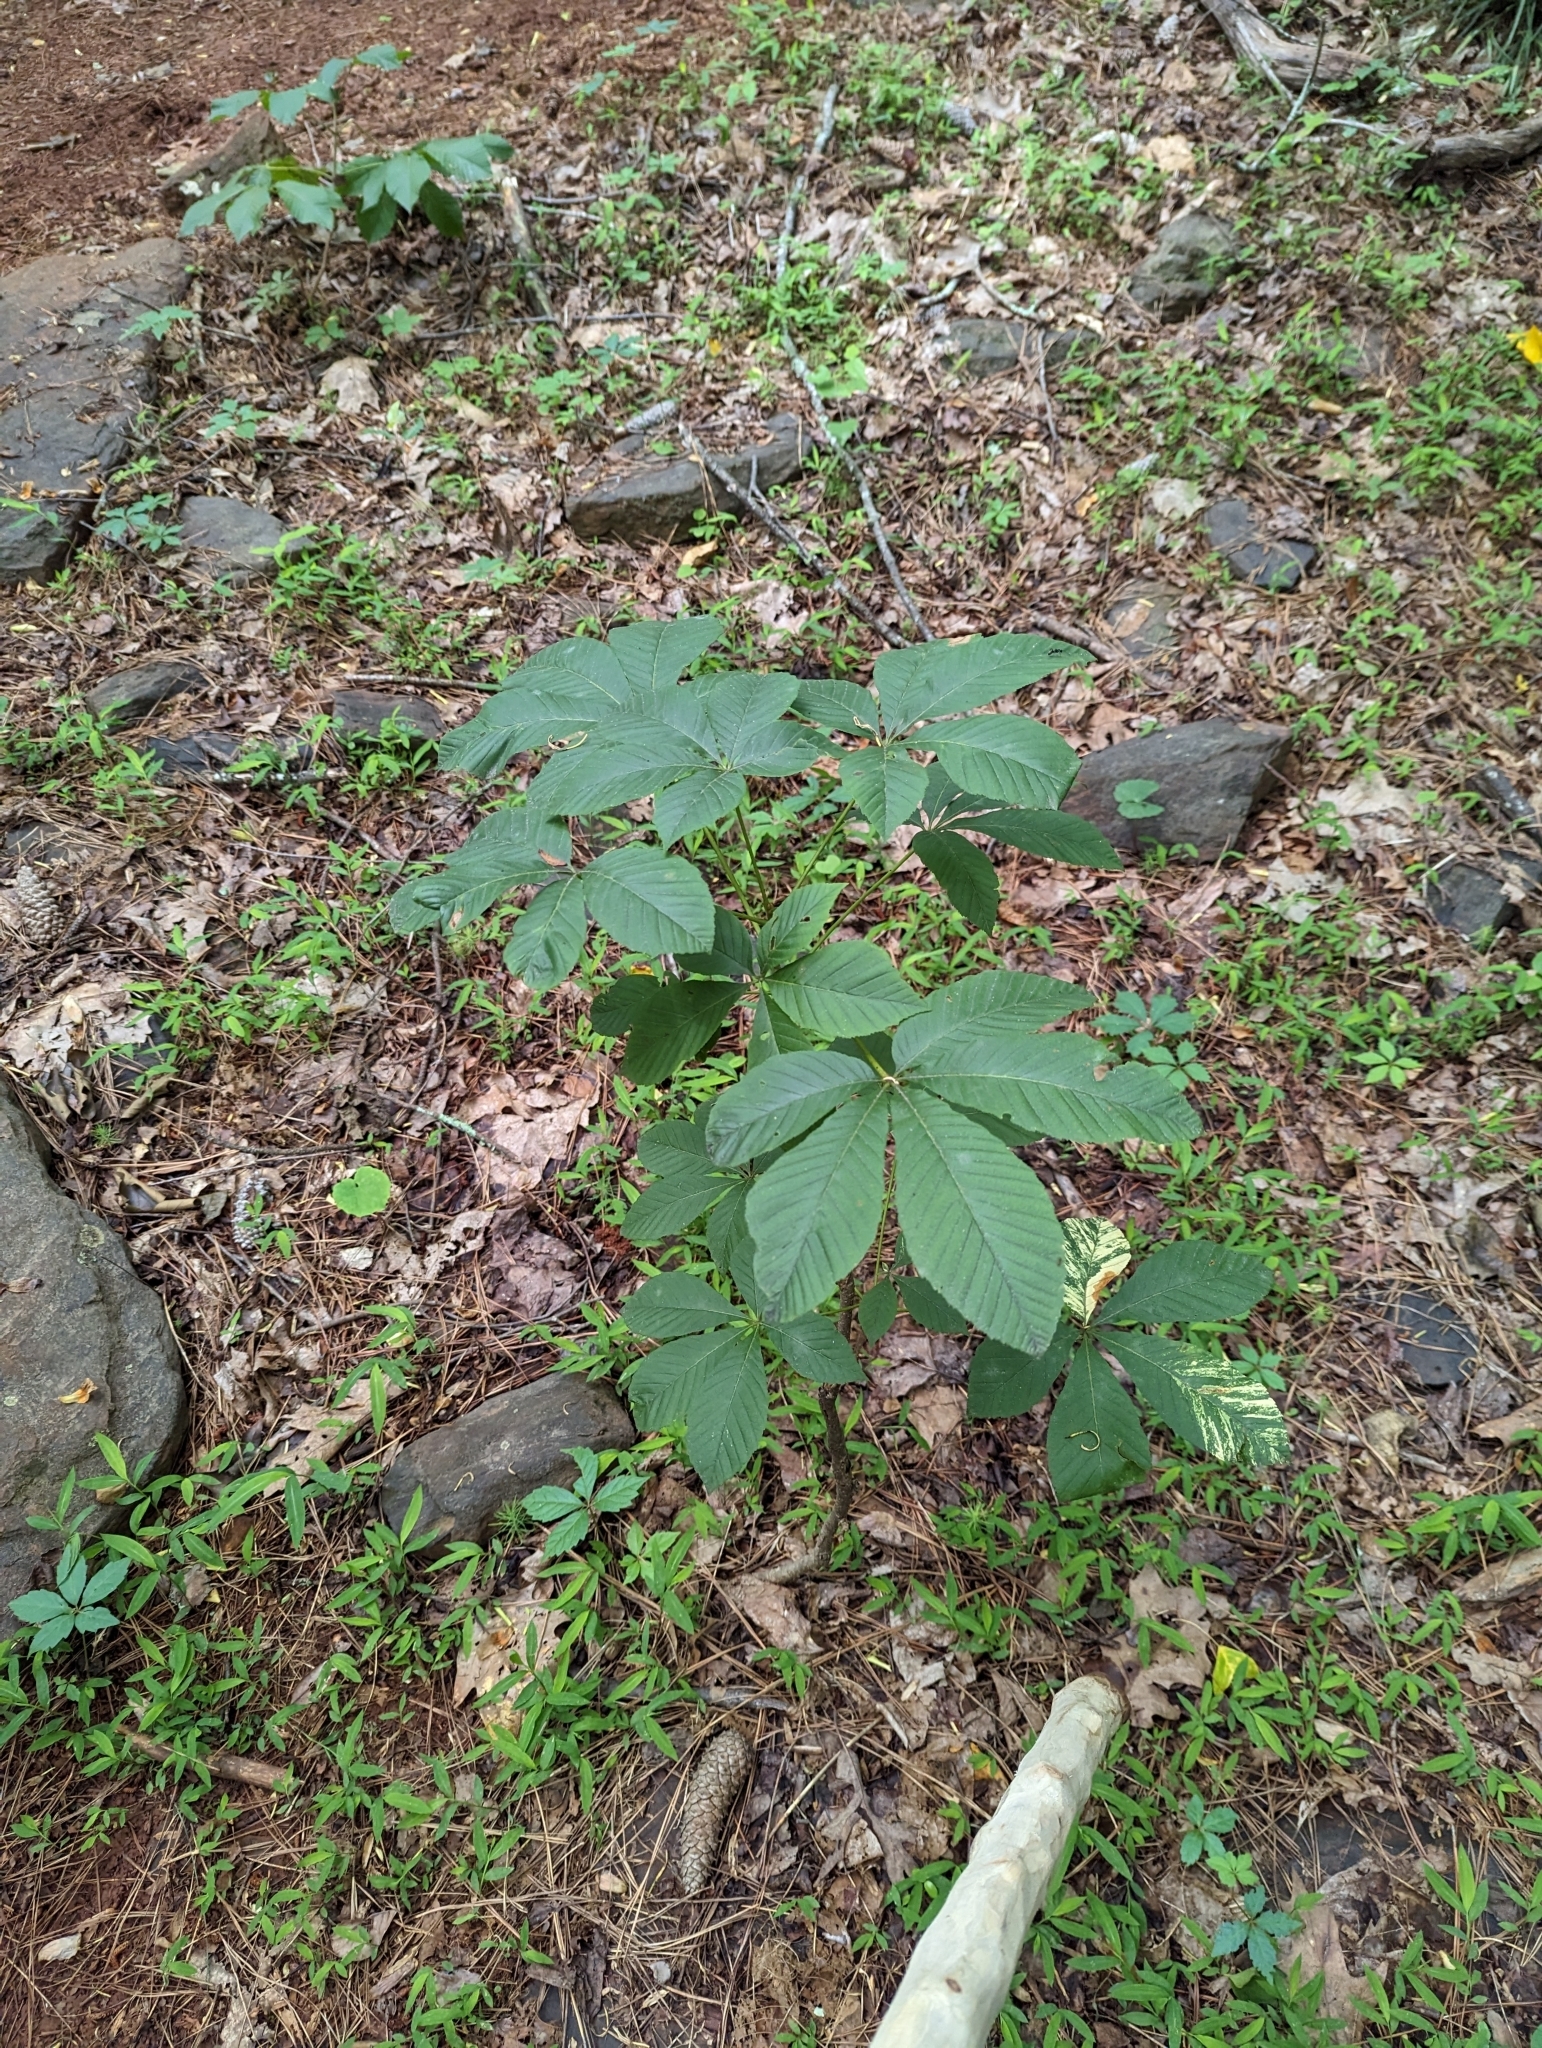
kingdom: Plantae
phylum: Tracheophyta
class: Magnoliopsida
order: Sapindales
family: Sapindaceae
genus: Aesculus
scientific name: Aesculus pavia
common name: Red buckeye
